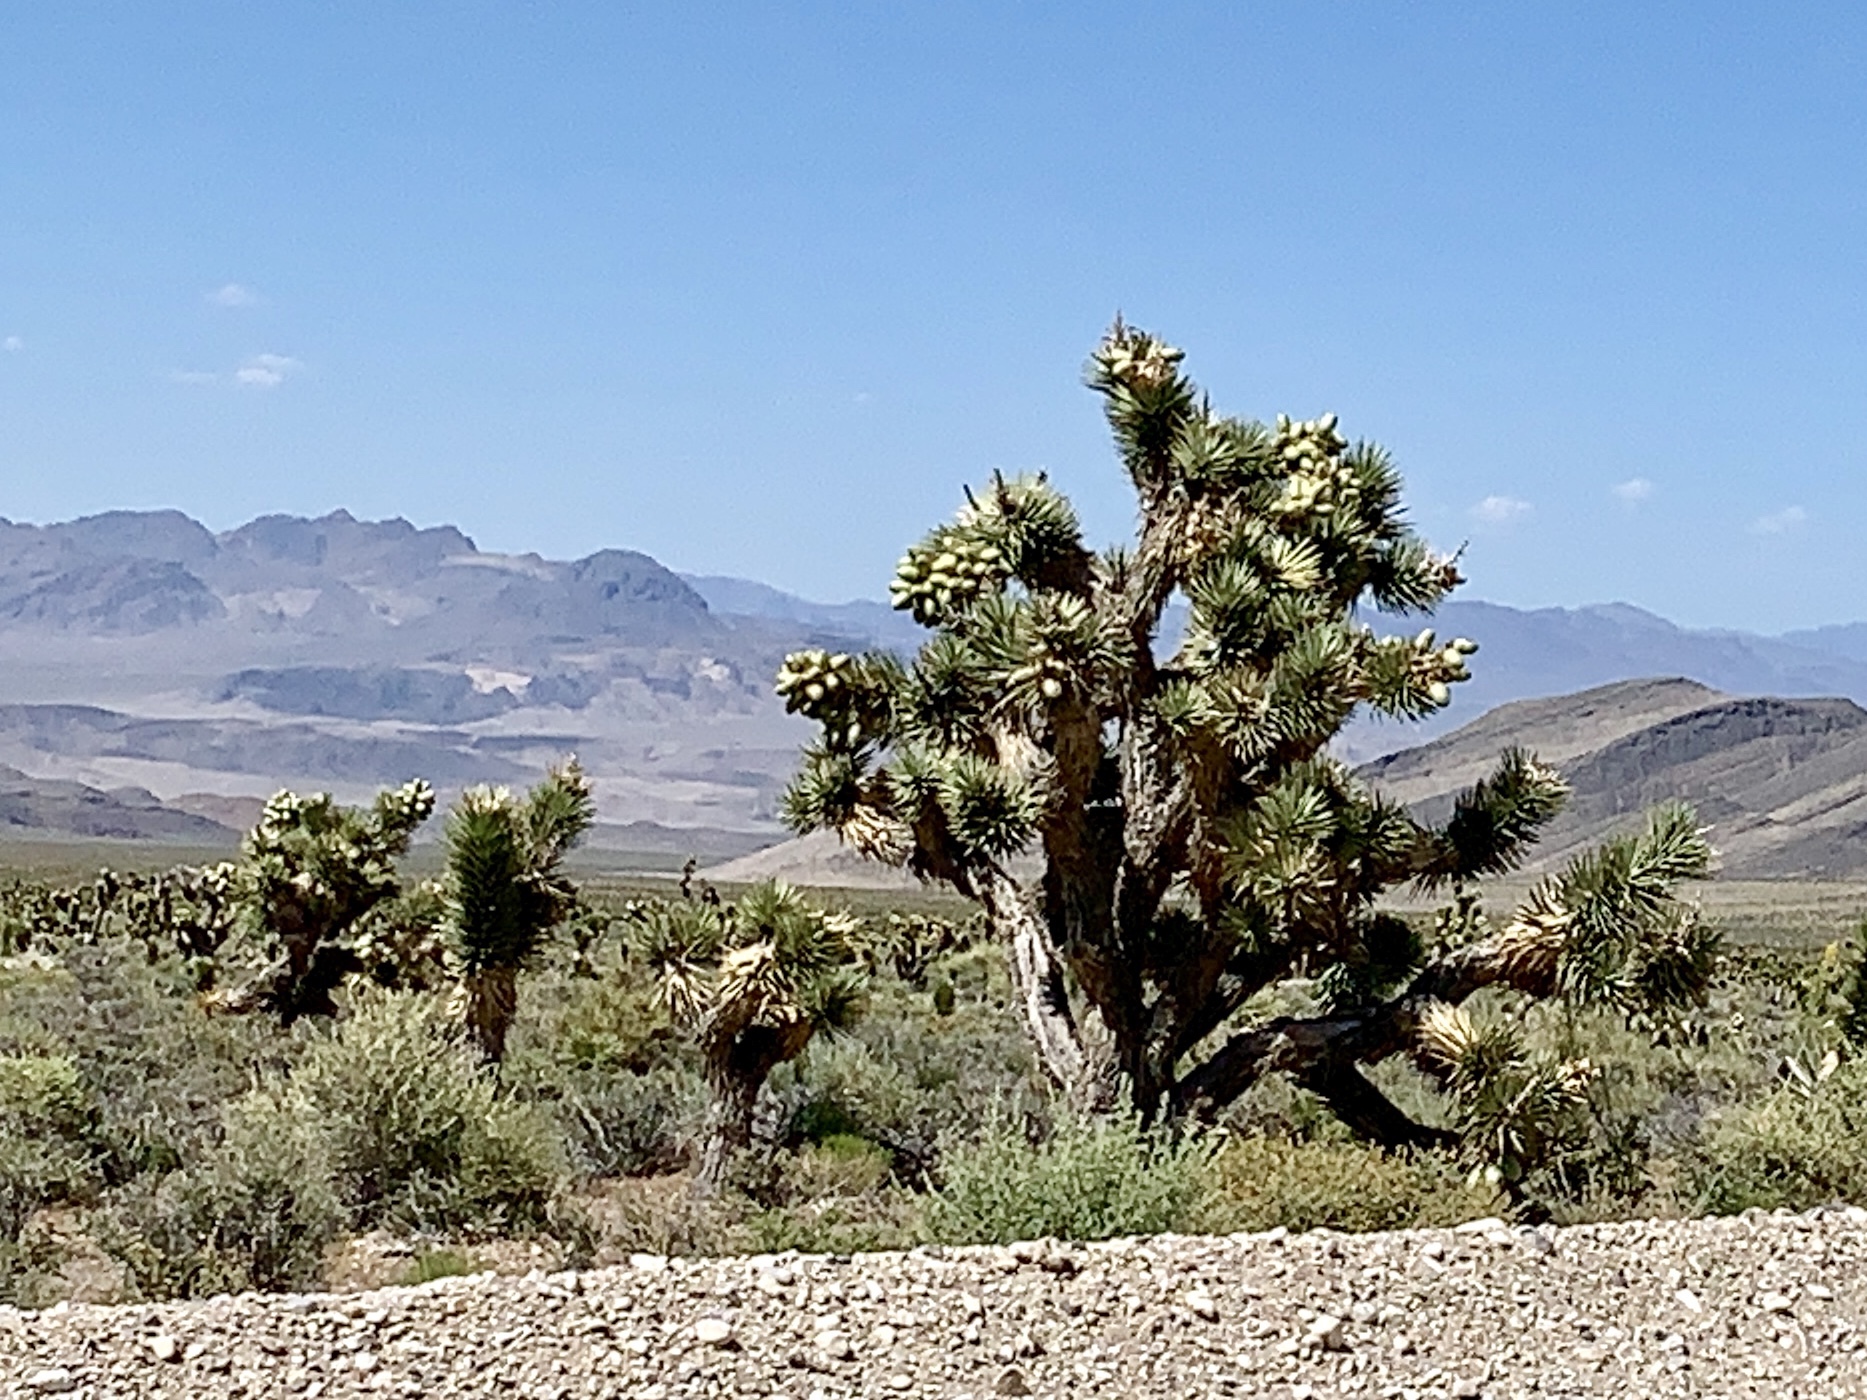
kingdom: Plantae
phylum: Tracheophyta
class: Liliopsida
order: Asparagales
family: Asparagaceae
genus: Yucca
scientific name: Yucca brevifolia
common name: Joshua tree
